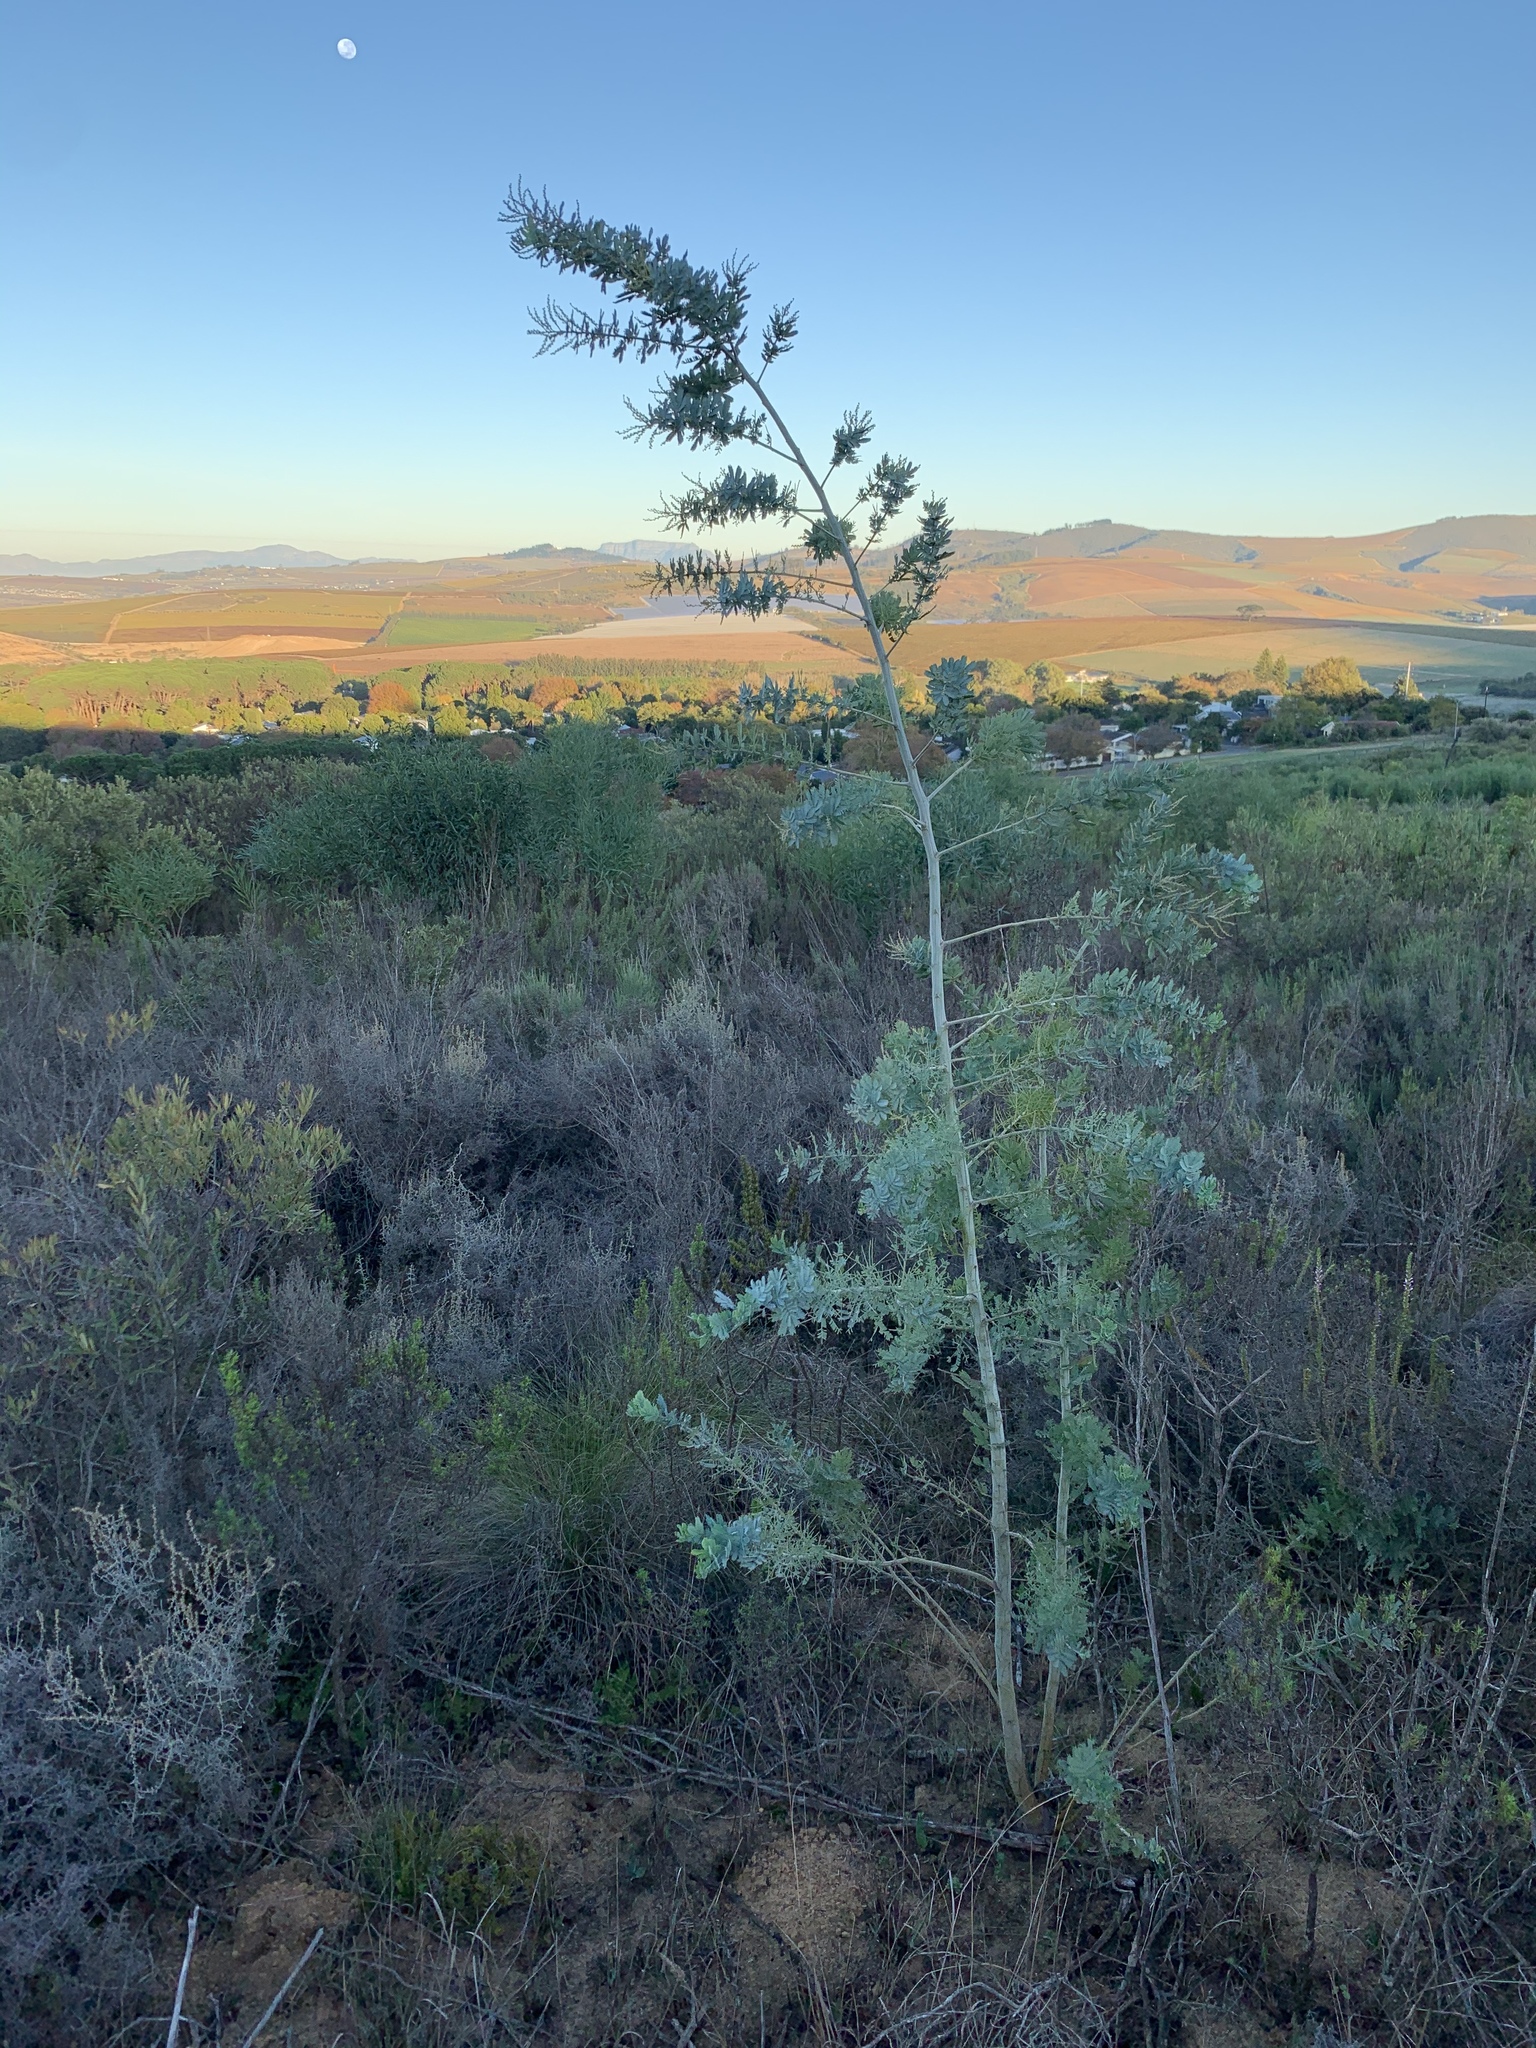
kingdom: Plantae
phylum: Tracheophyta
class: Magnoliopsida
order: Fabales
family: Fabaceae
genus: Acacia
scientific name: Acacia baileyana
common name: Cootamundra wattle
